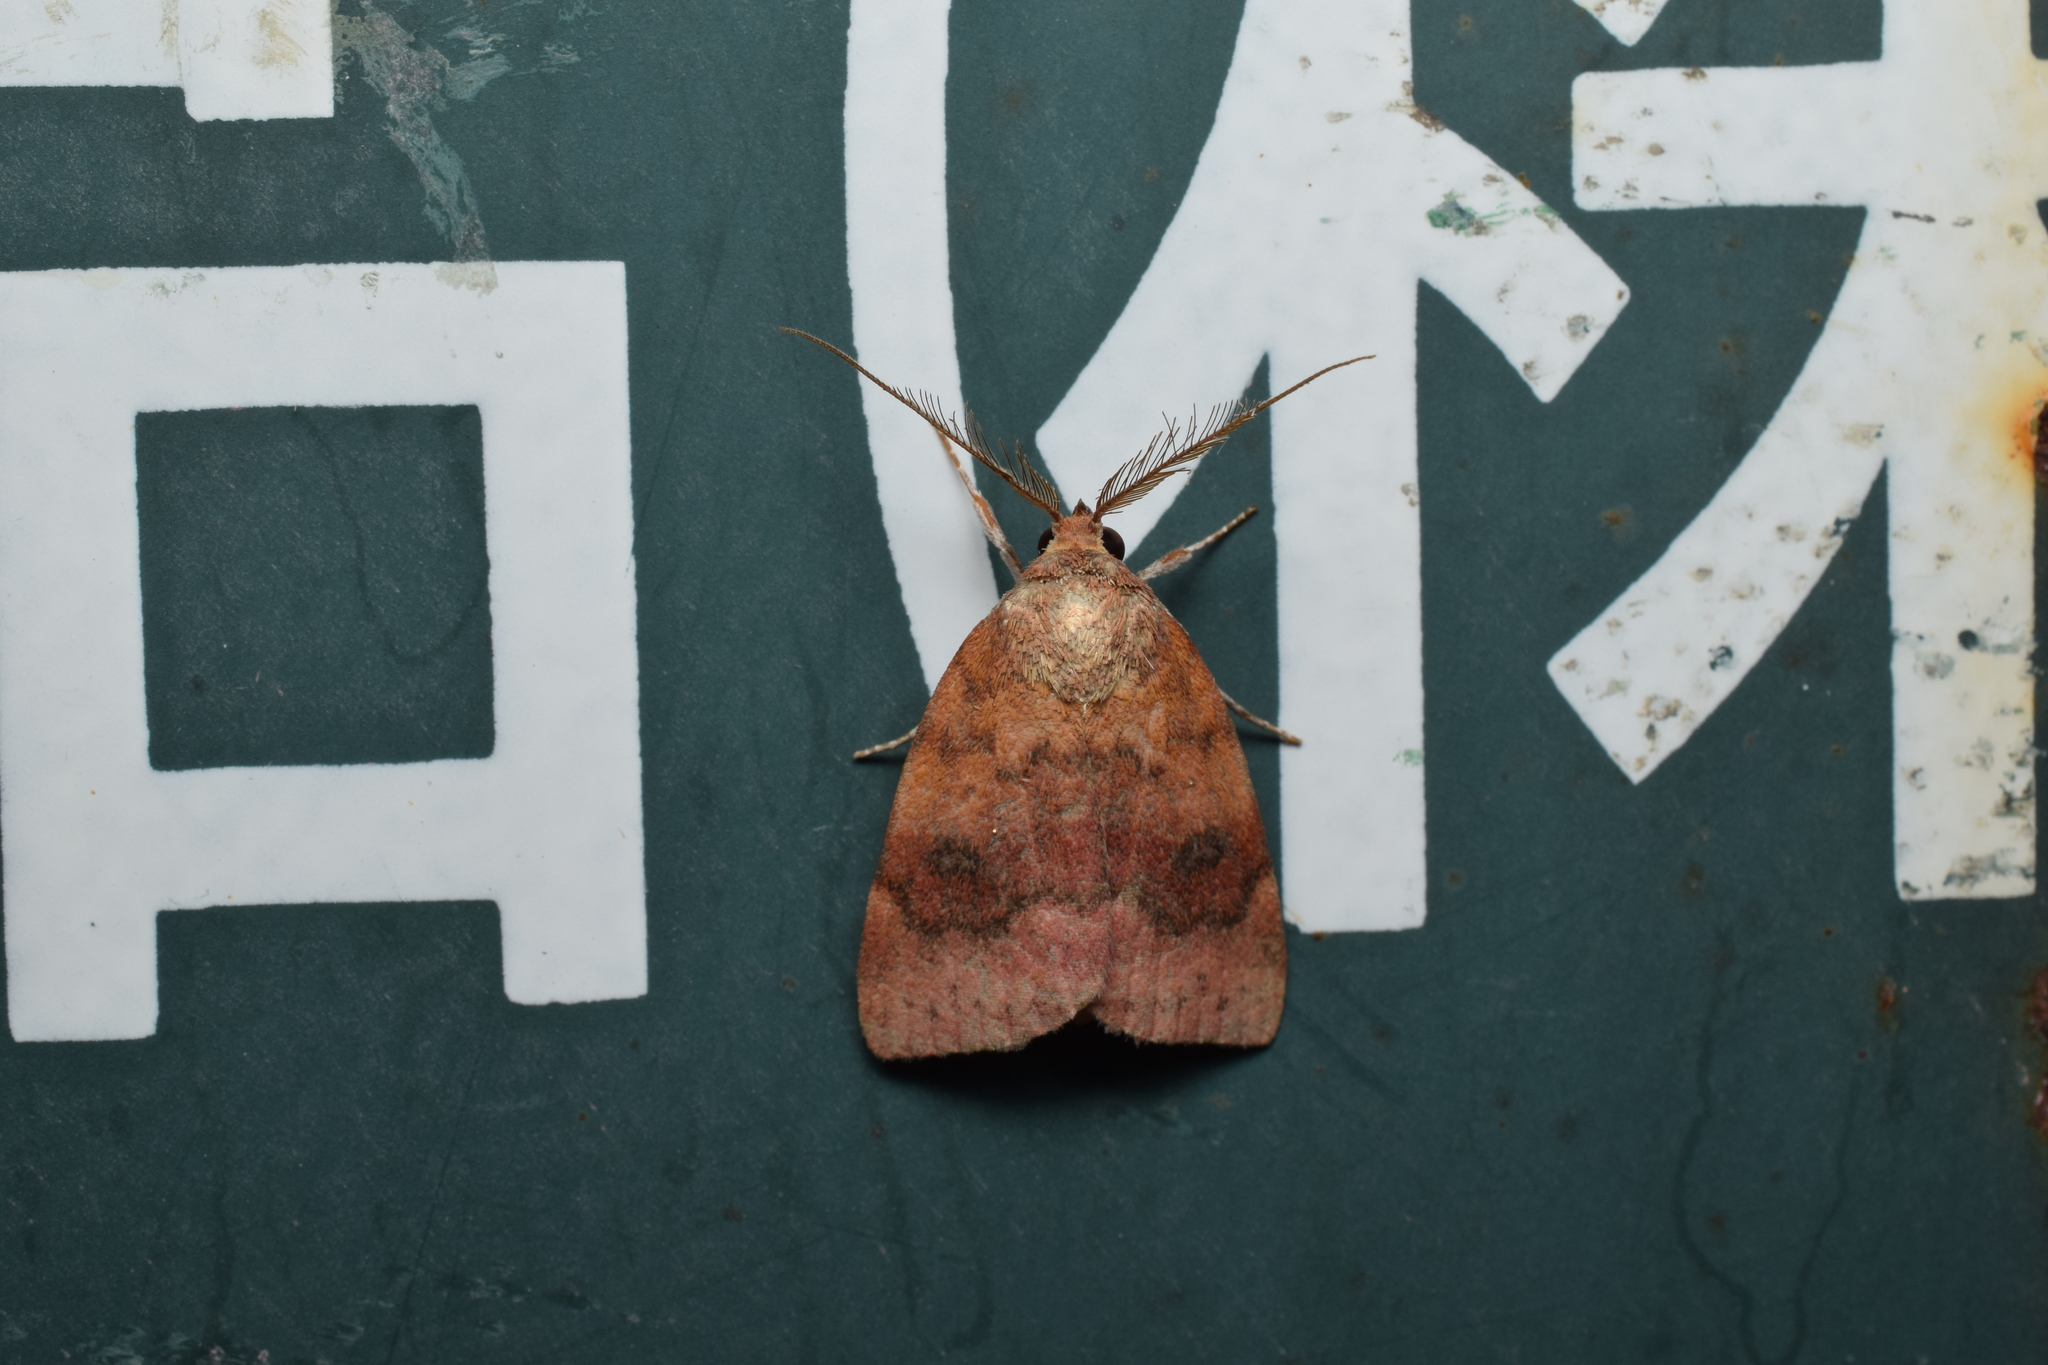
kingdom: Animalia
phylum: Arthropoda
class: Insecta
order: Lepidoptera
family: Nolidae
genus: Gelastocera
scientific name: Gelastocera kotshubeji
